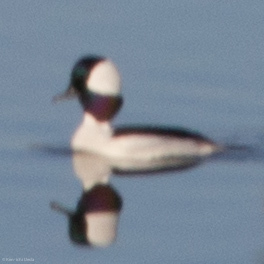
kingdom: Animalia
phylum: Chordata
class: Aves
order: Anseriformes
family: Anatidae
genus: Bucephala
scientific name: Bucephala albeola
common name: Bufflehead
